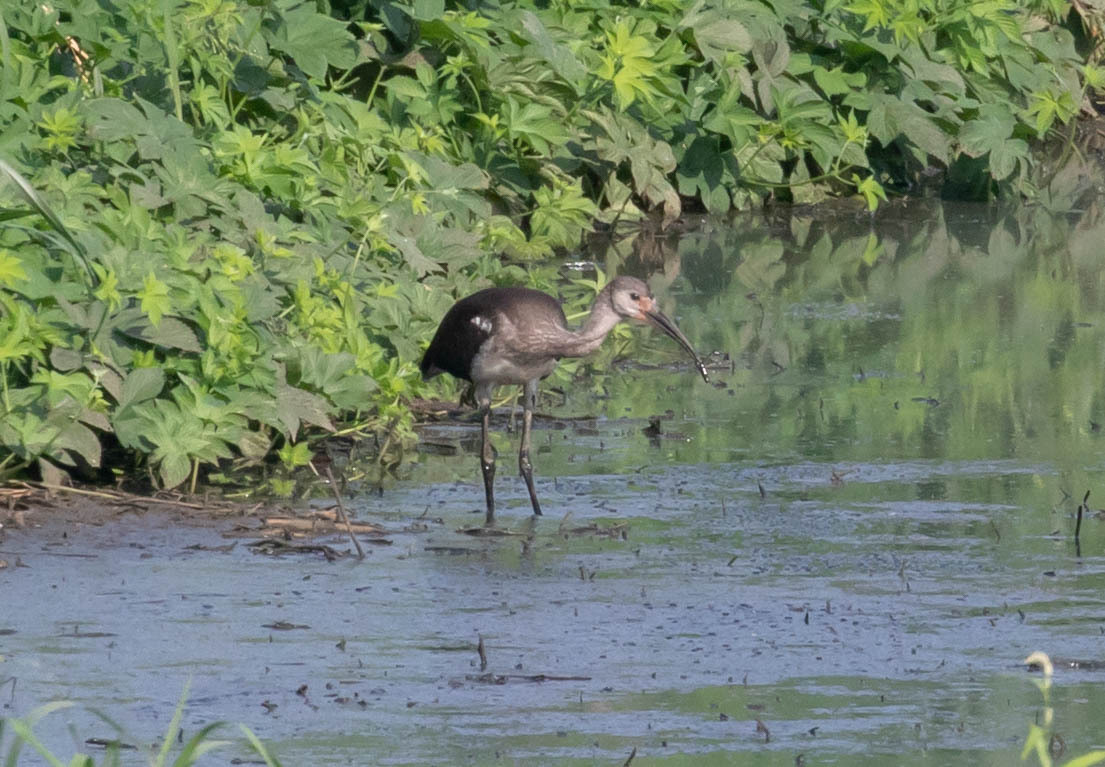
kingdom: Animalia
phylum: Chordata
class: Aves
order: Pelecaniformes
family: Threskiornithidae
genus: Eudocimus
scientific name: Eudocimus albus
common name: White ibis
